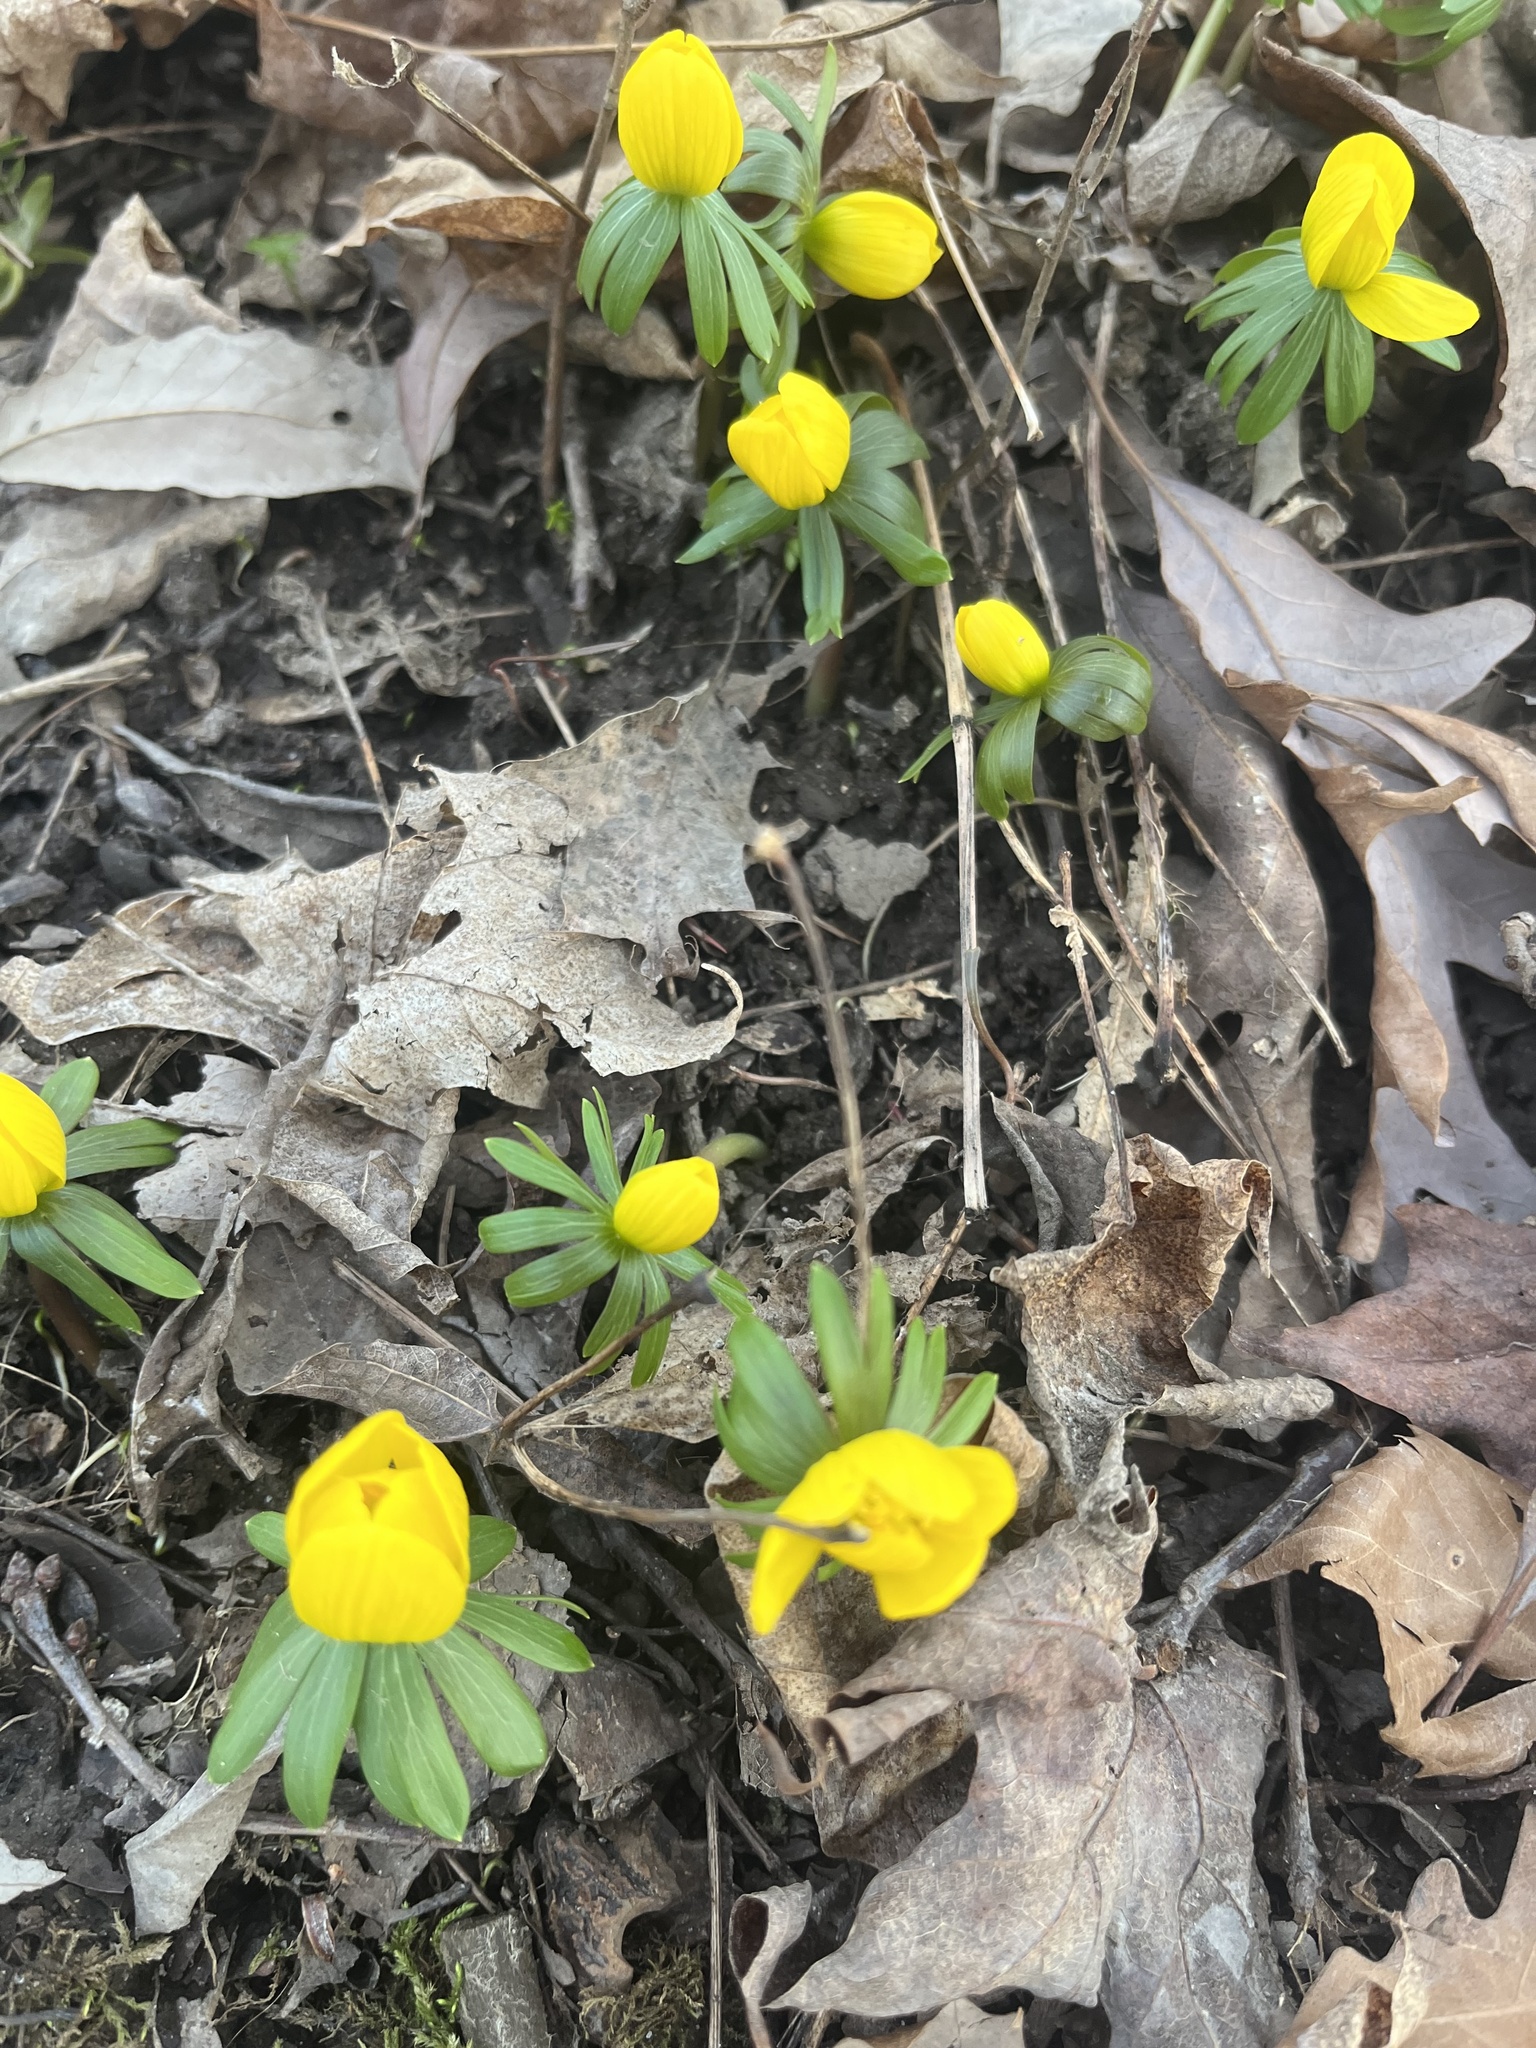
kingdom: Plantae
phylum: Tracheophyta
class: Magnoliopsida
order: Ranunculales
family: Ranunculaceae
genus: Eranthis
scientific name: Eranthis hyemalis
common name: Winter aconite
